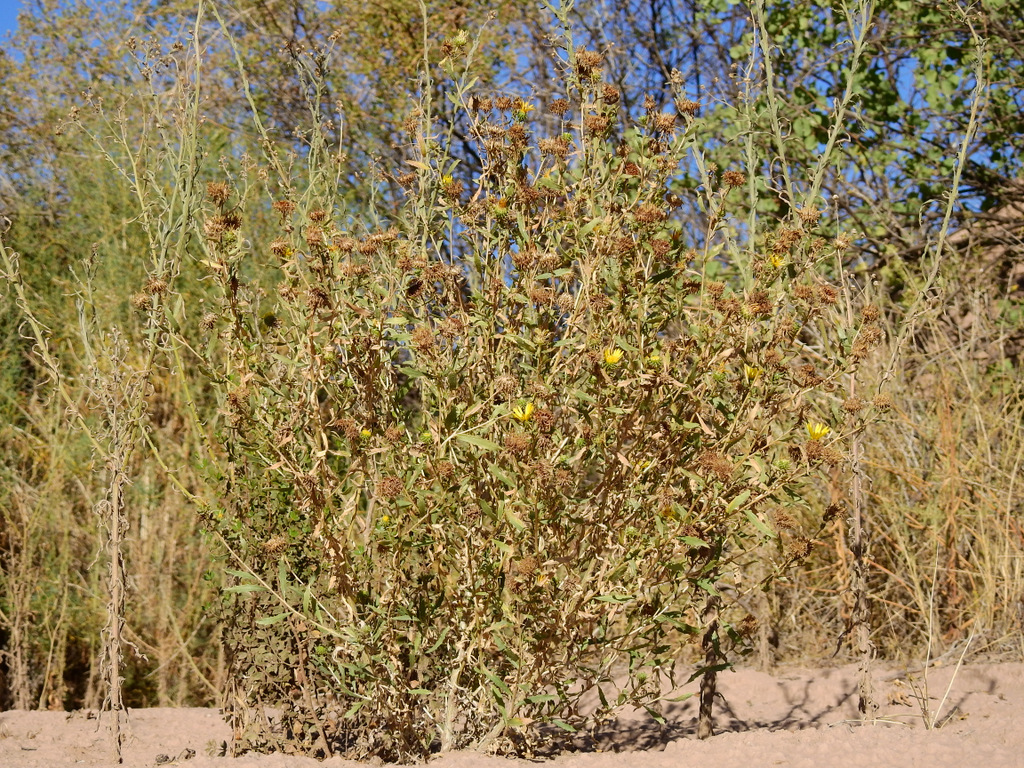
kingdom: Plantae
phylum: Tracheophyta
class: Magnoliopsida
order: Asterales
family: Asteraceae
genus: Grindelia
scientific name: Grindelia pulchella
